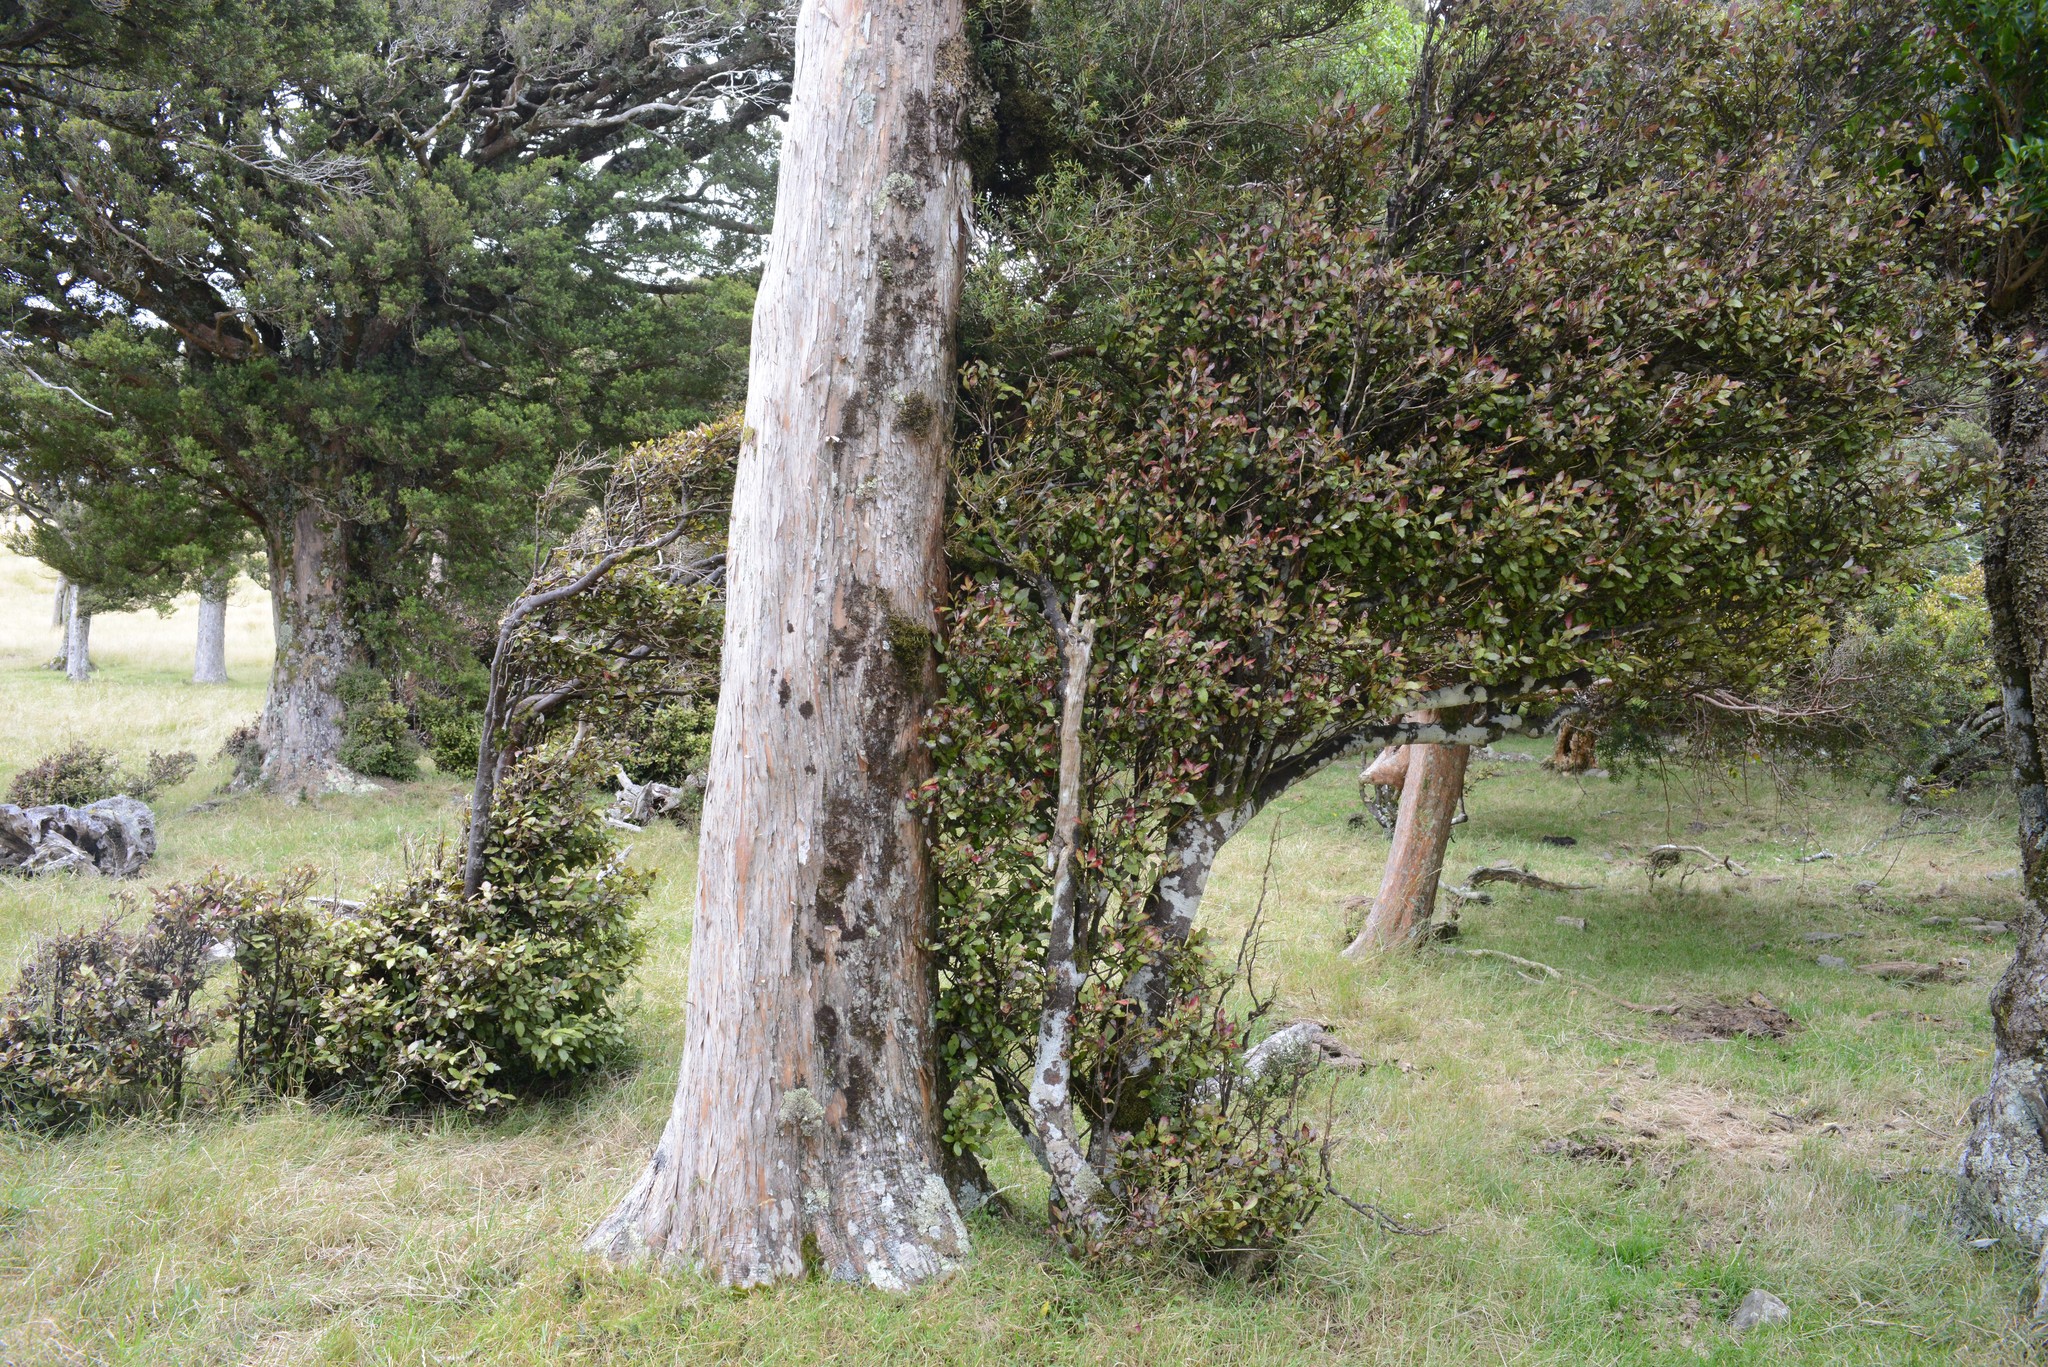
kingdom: Plantae
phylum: Tracheophyta
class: Magnoliopsida
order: Canellales
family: Winteraceae
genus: Pseudowintera
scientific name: Pseudowintera colorata
